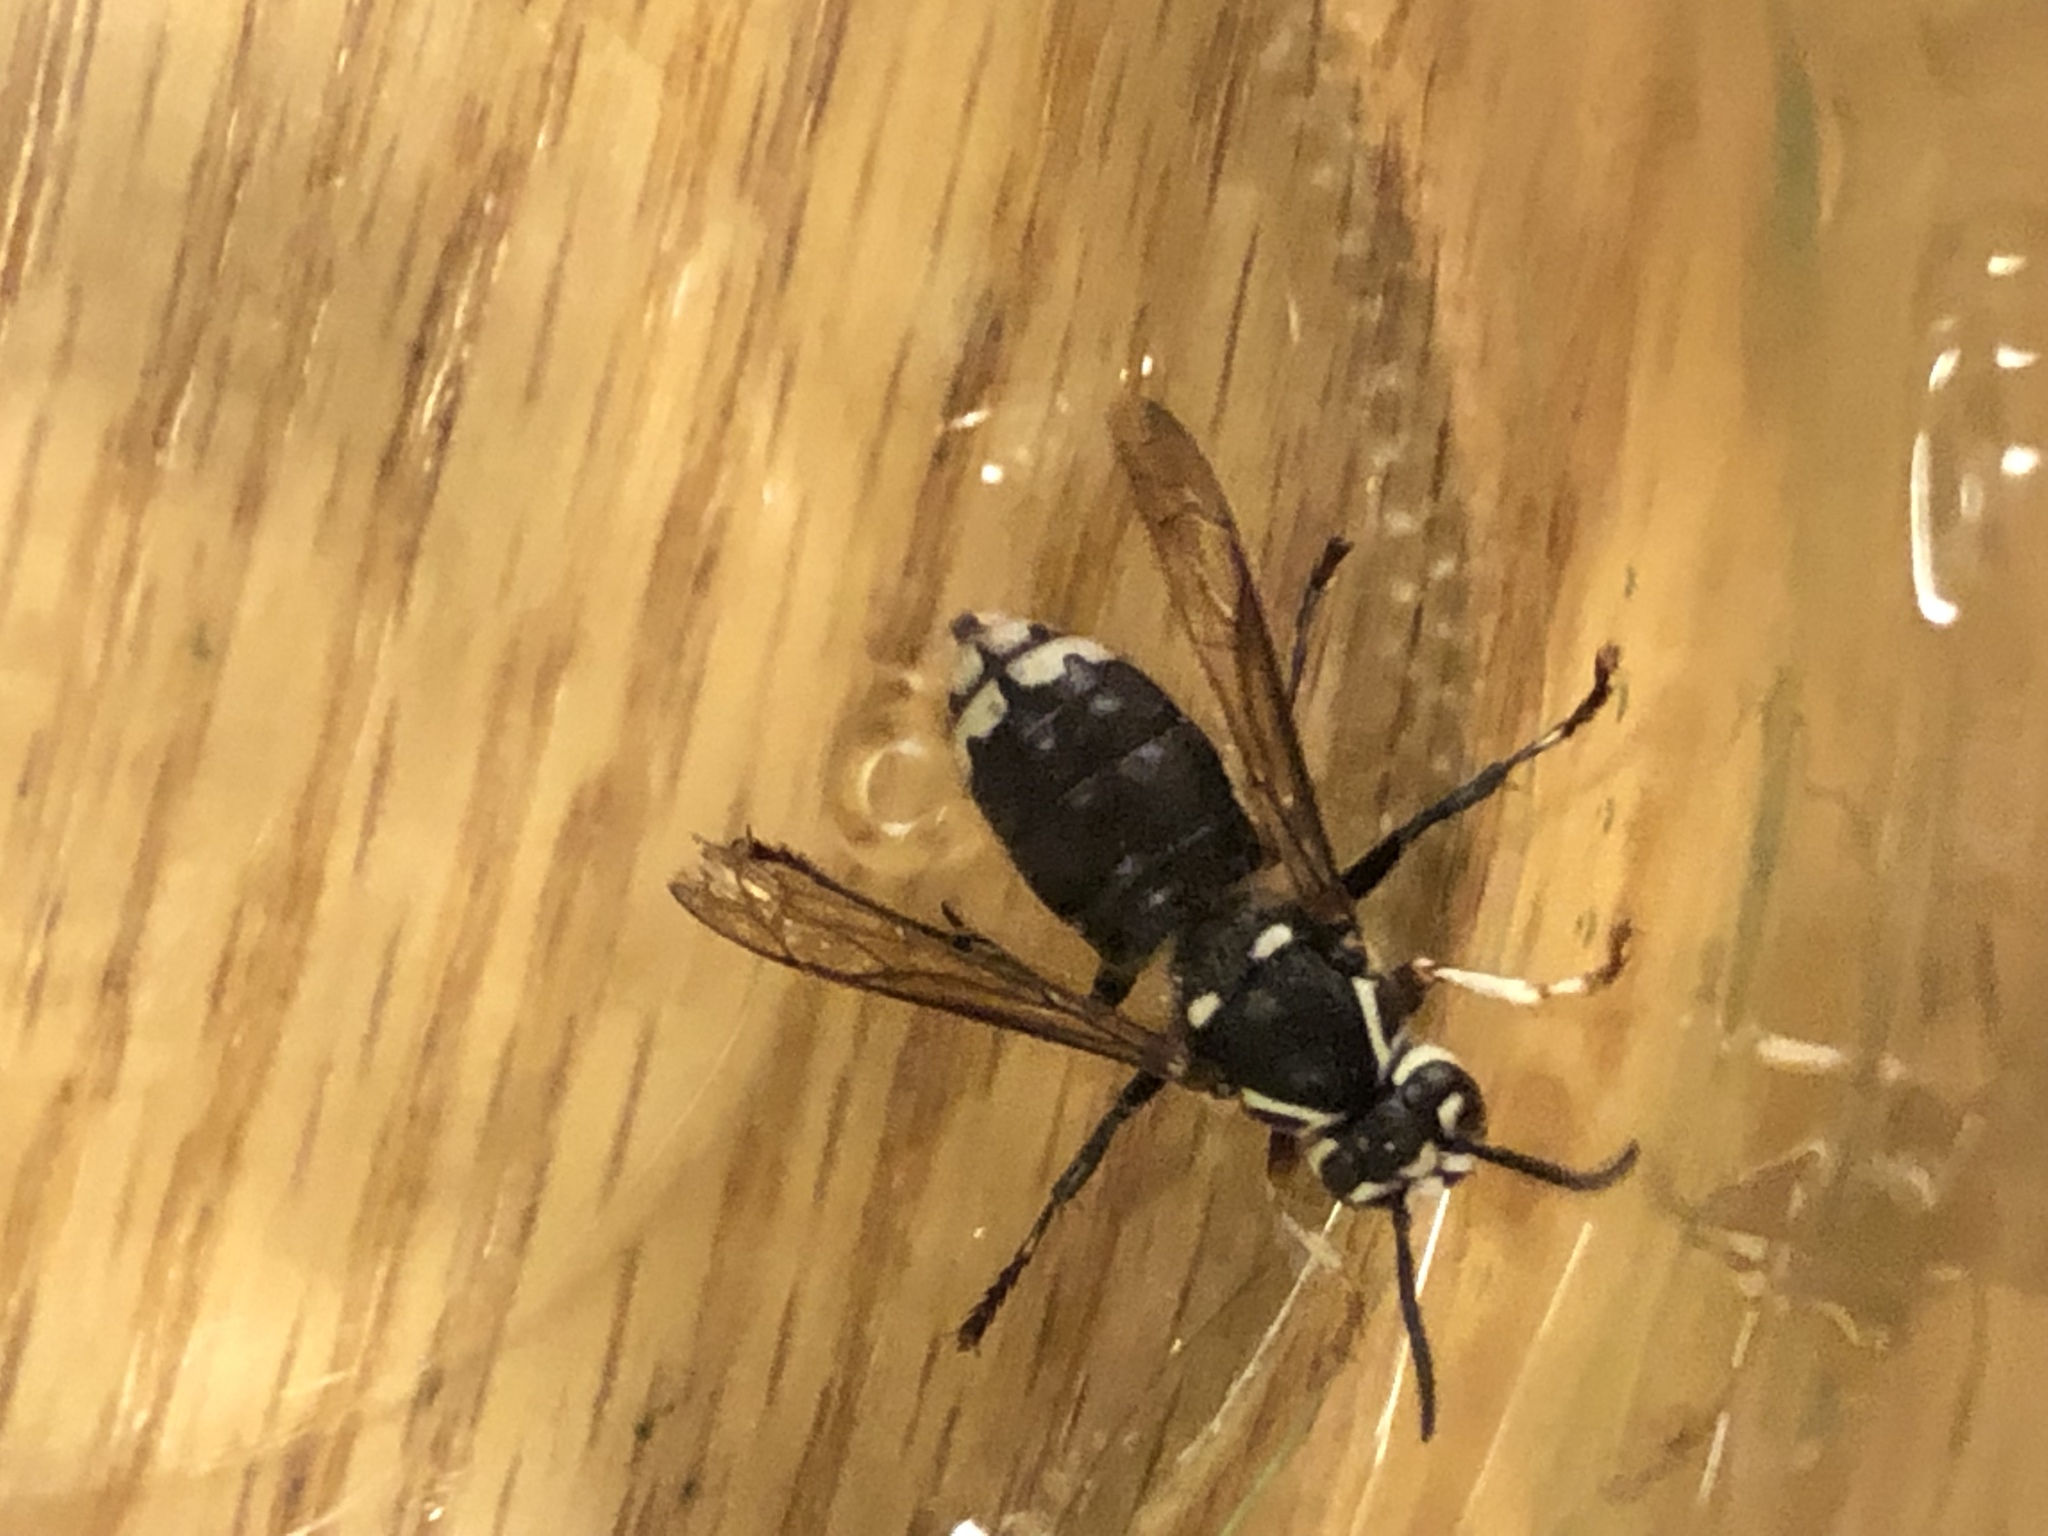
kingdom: Animalia
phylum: Arthropoda
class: Insecta
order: Hymenoptera
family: Vespidae
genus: Dolichovespula
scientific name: Dolichovespula maculata
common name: Bald-faced hornet
